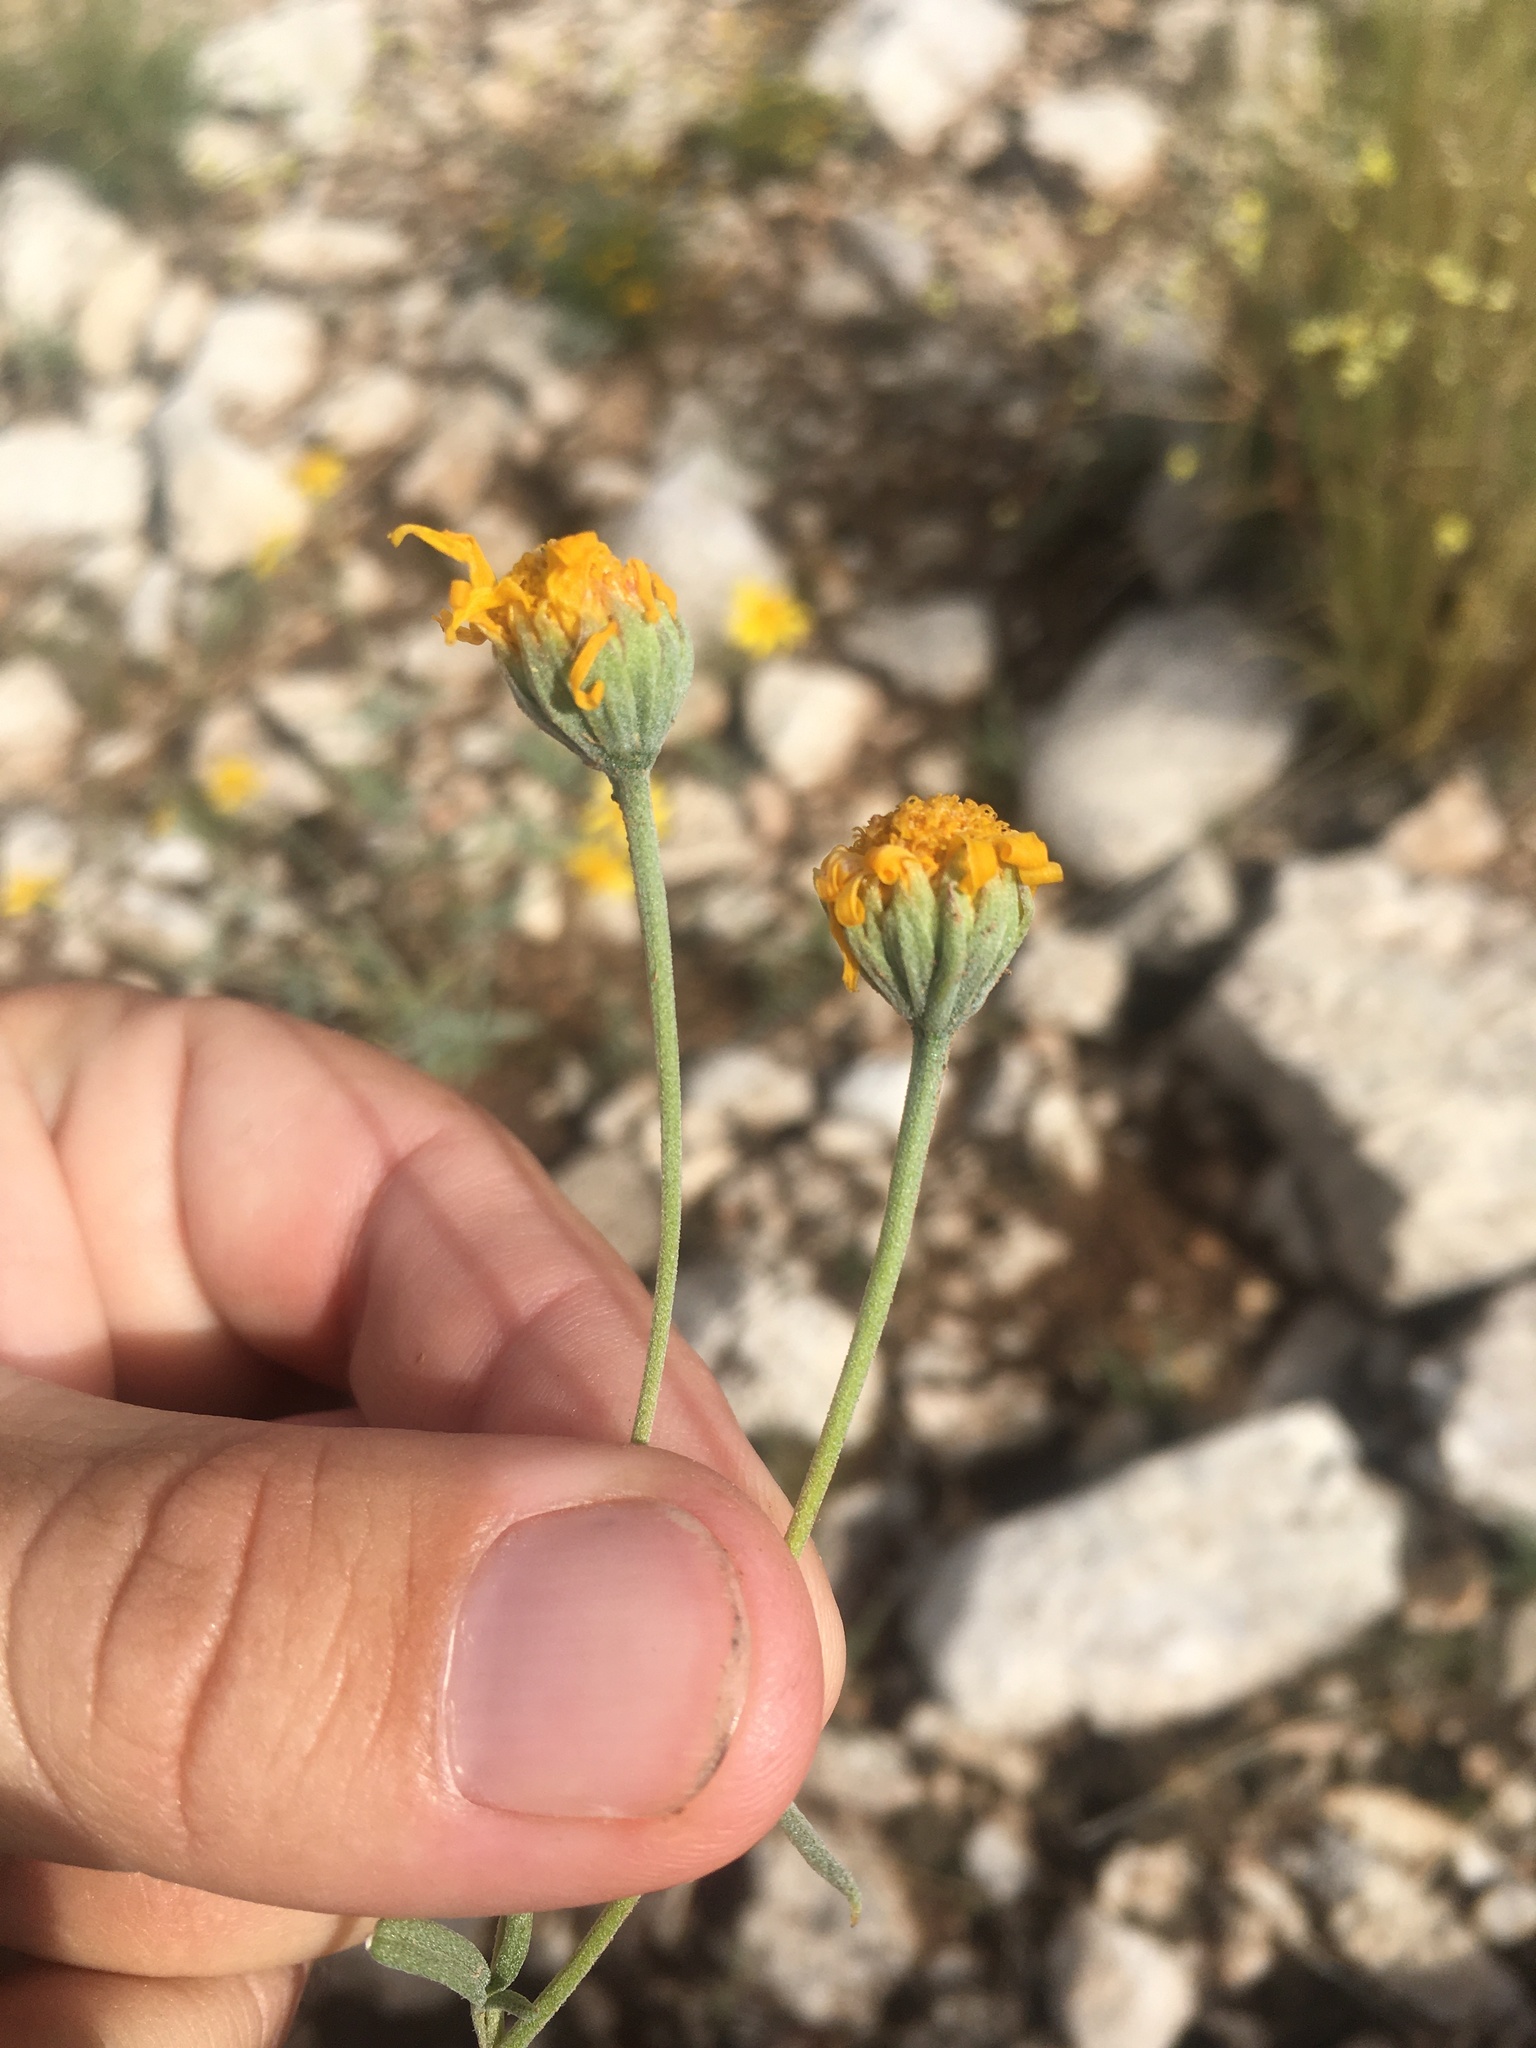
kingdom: Plantae
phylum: Tracheophyta
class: Magnoliopsida
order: Asterales
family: Asteraceae
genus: Picradeniopsis
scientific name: Picradeniopsis absinthifolia
